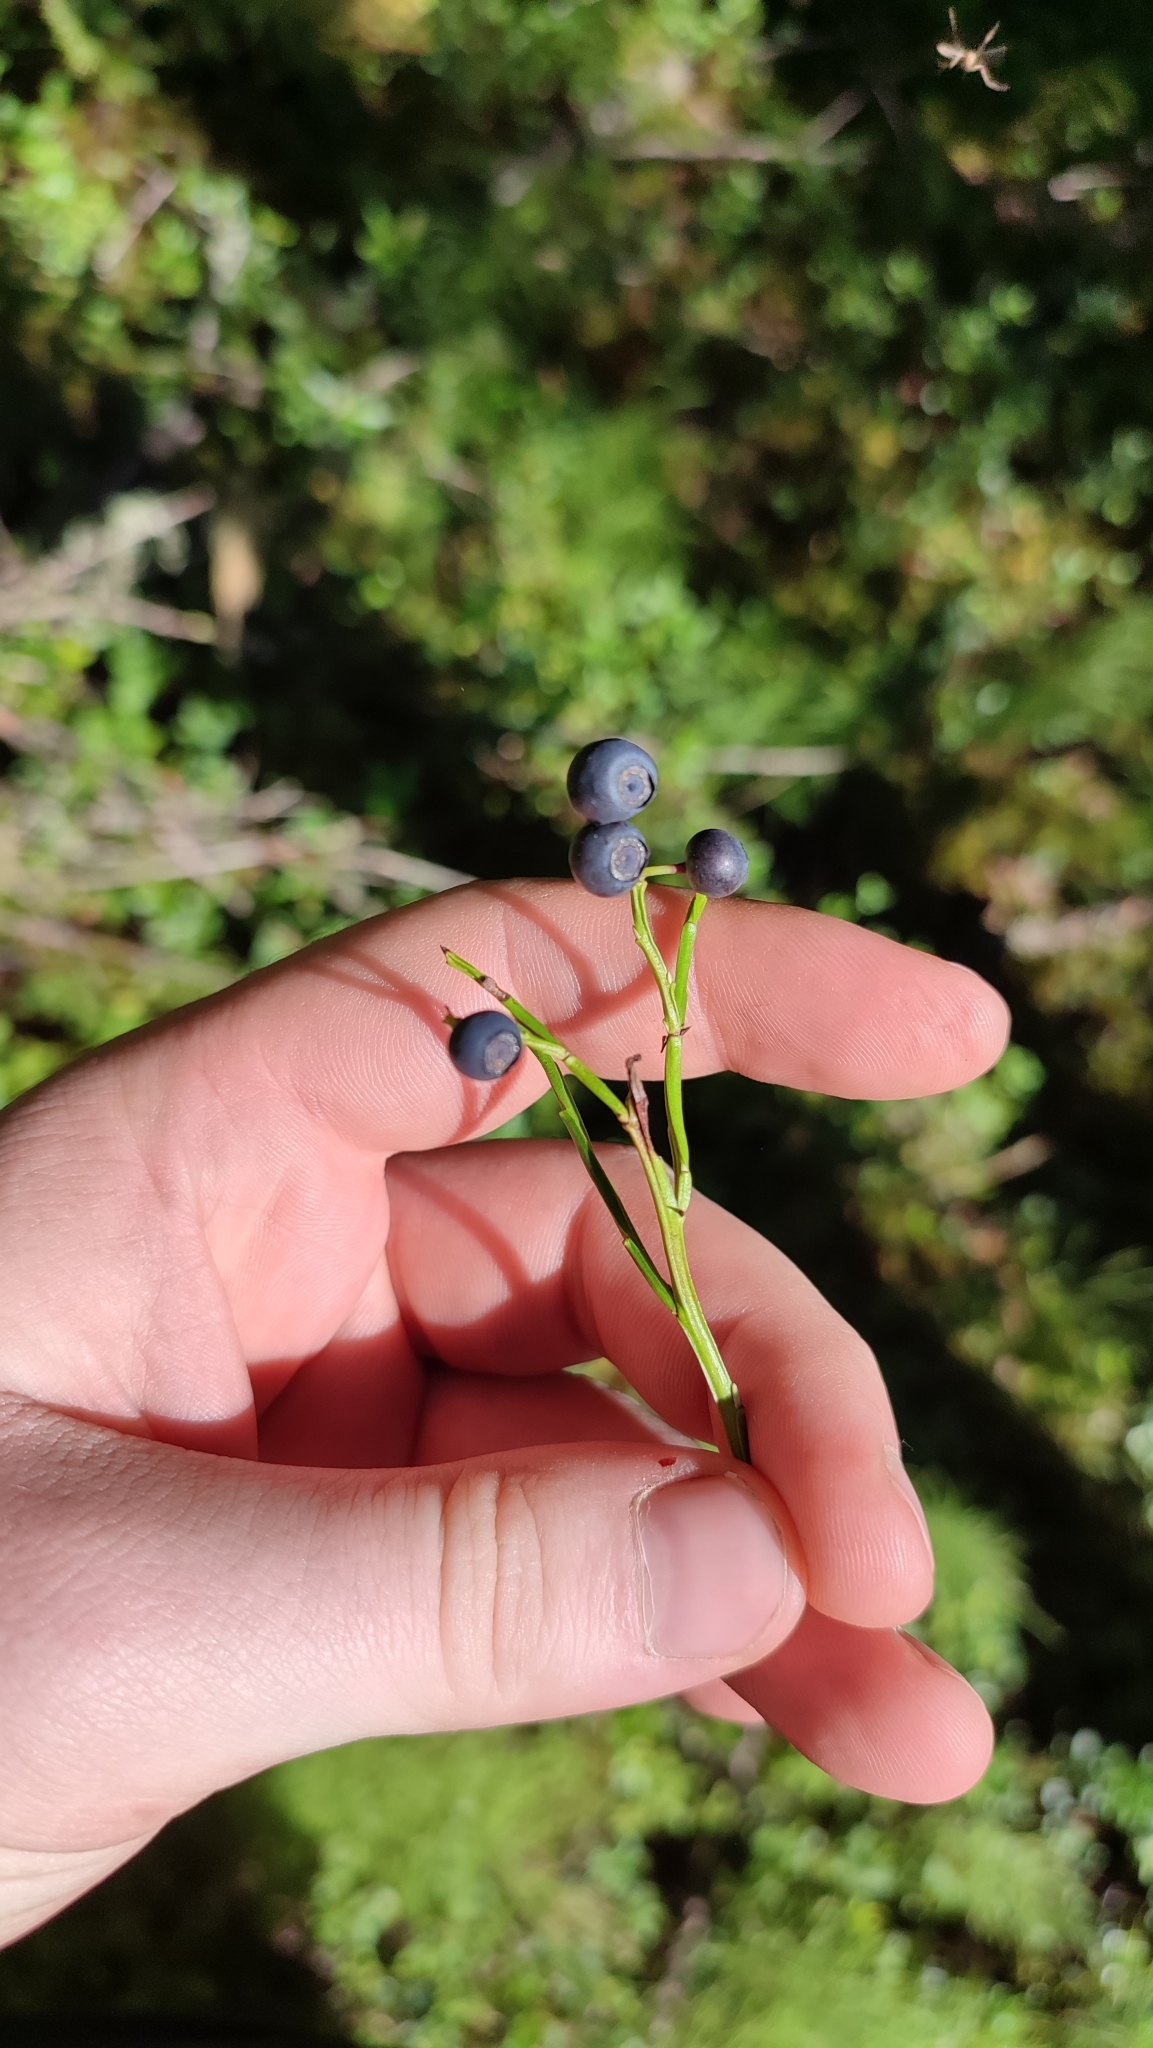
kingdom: Plantae
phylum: Tracheophyta
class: Magnoliopsida
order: Ericales
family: Ericaceae
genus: Vaccinium
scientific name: Vaccinium myrtillus
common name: Bilberry
